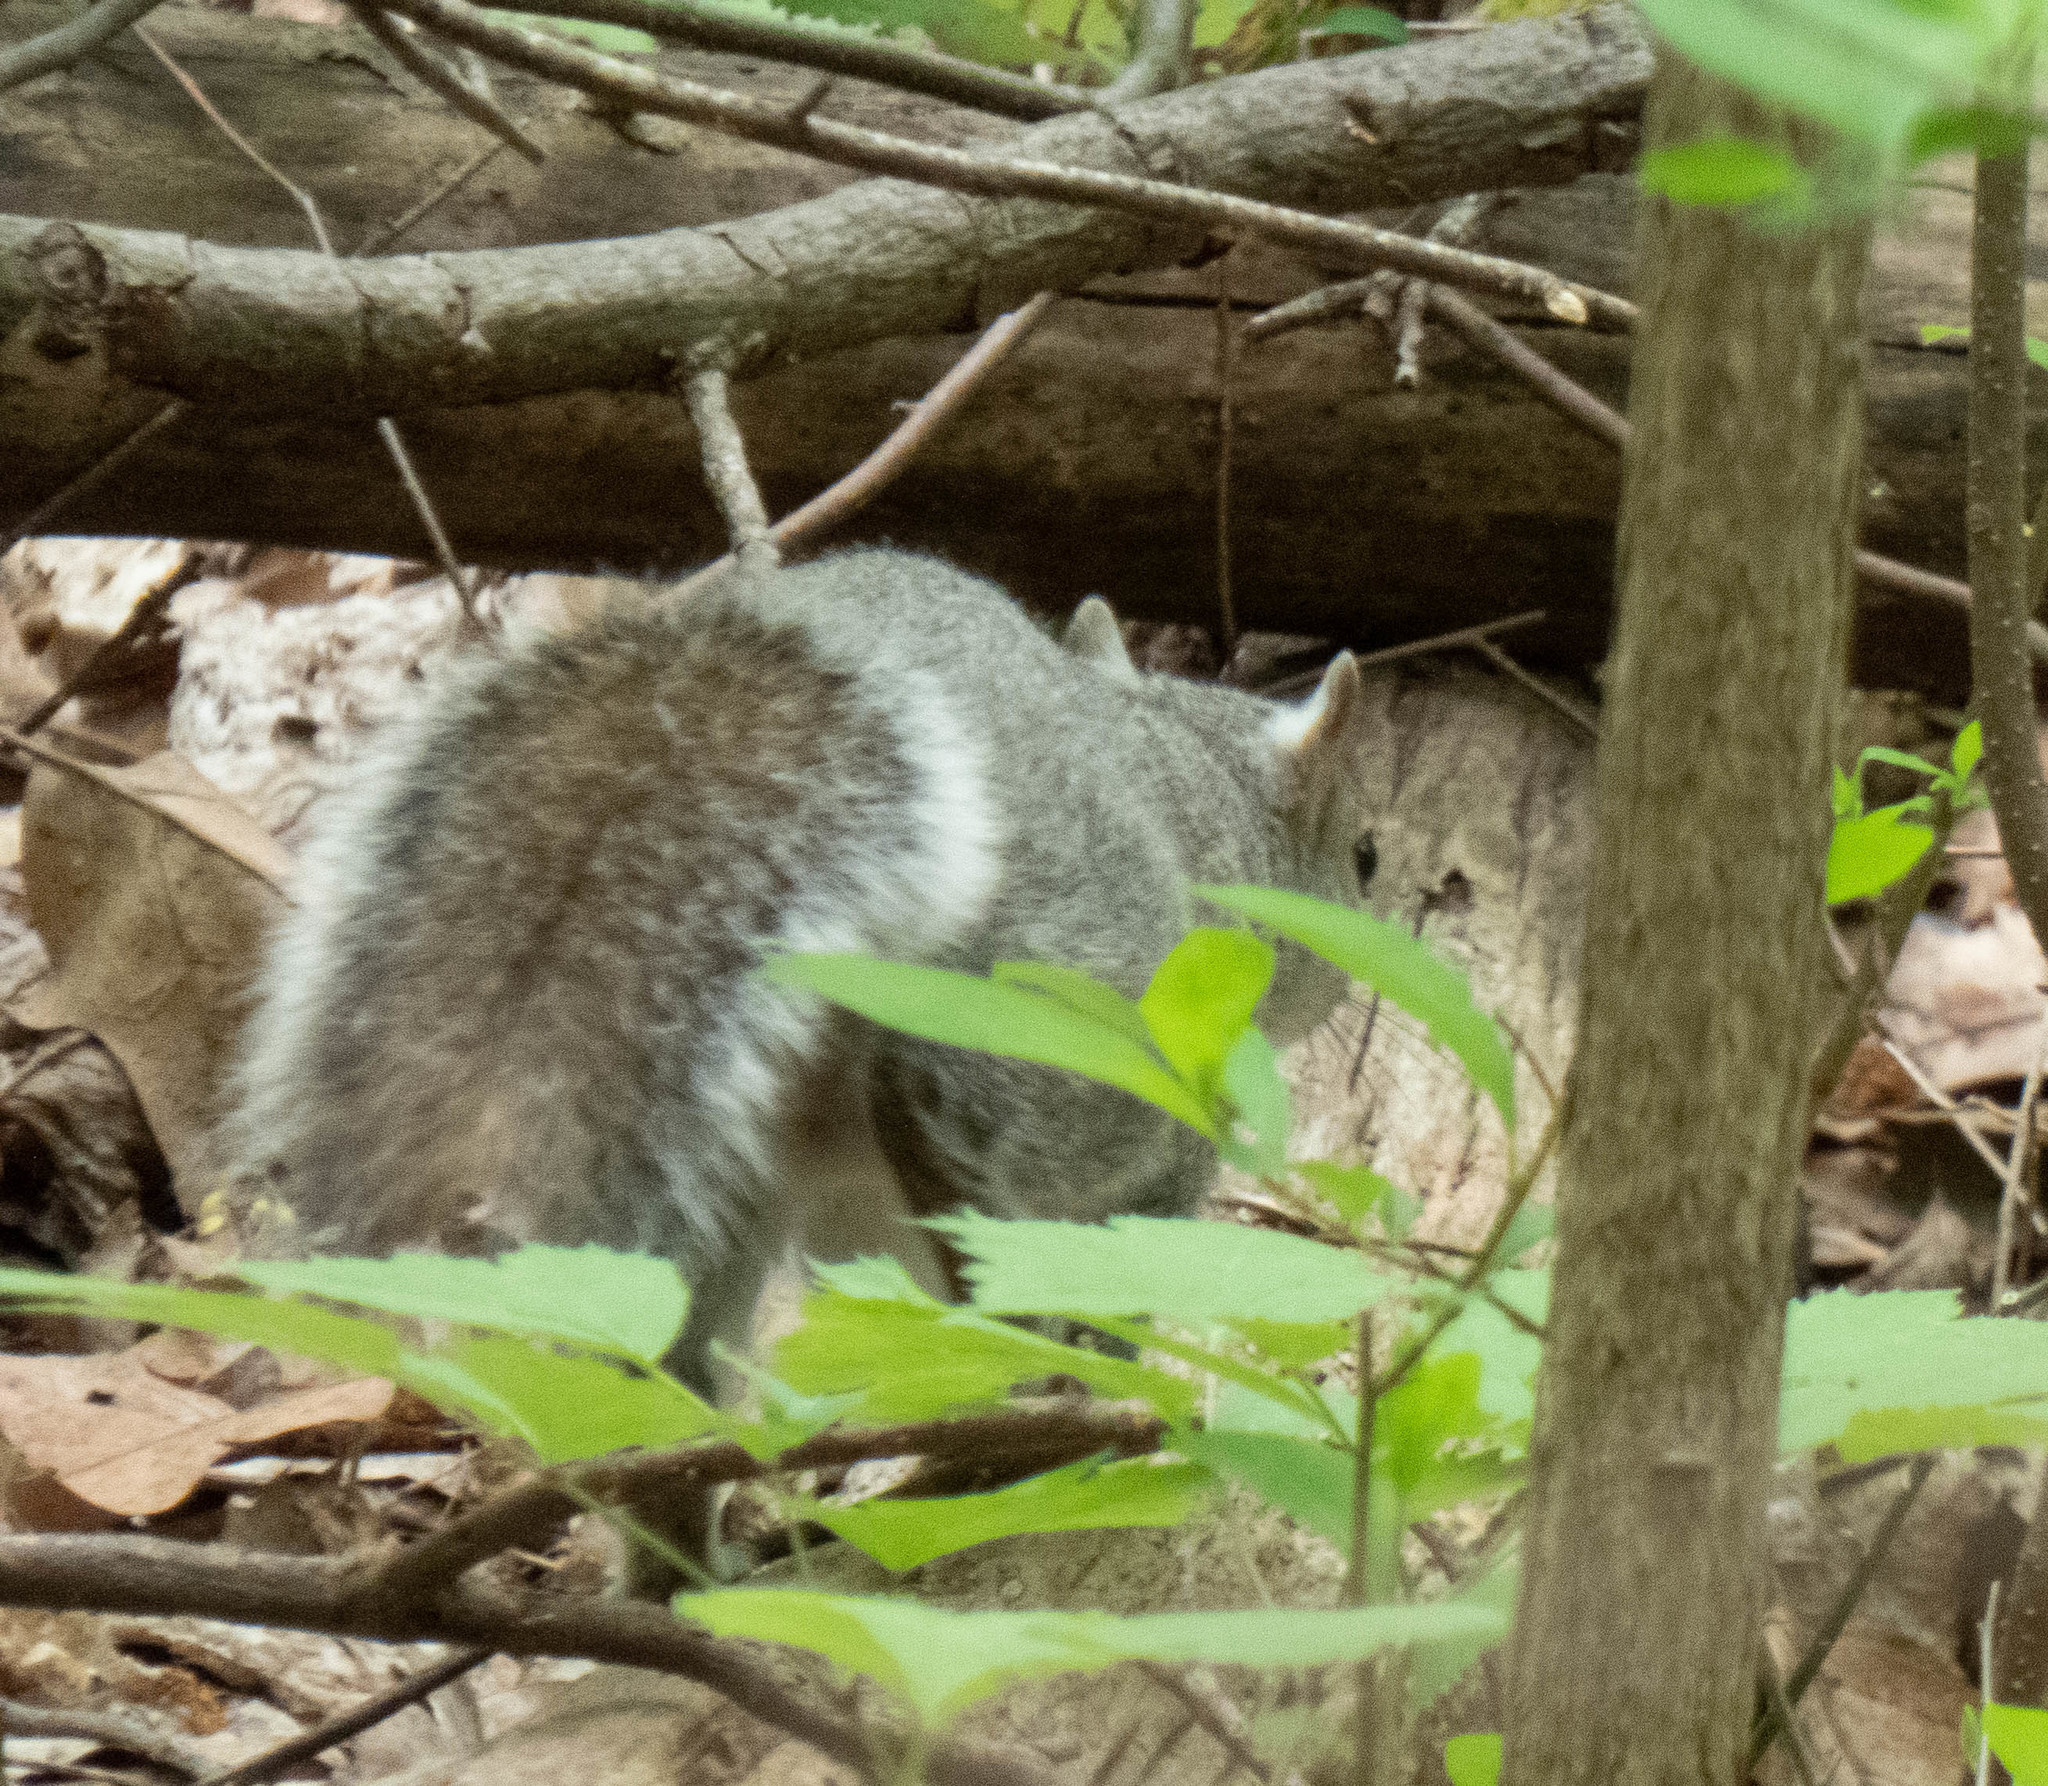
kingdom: Animalia
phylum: Chordata
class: Mammalia
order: Rodentia
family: Sciuridae
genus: Sciurus
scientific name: Sciurus carolinensis
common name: Eastern gray squirrel
